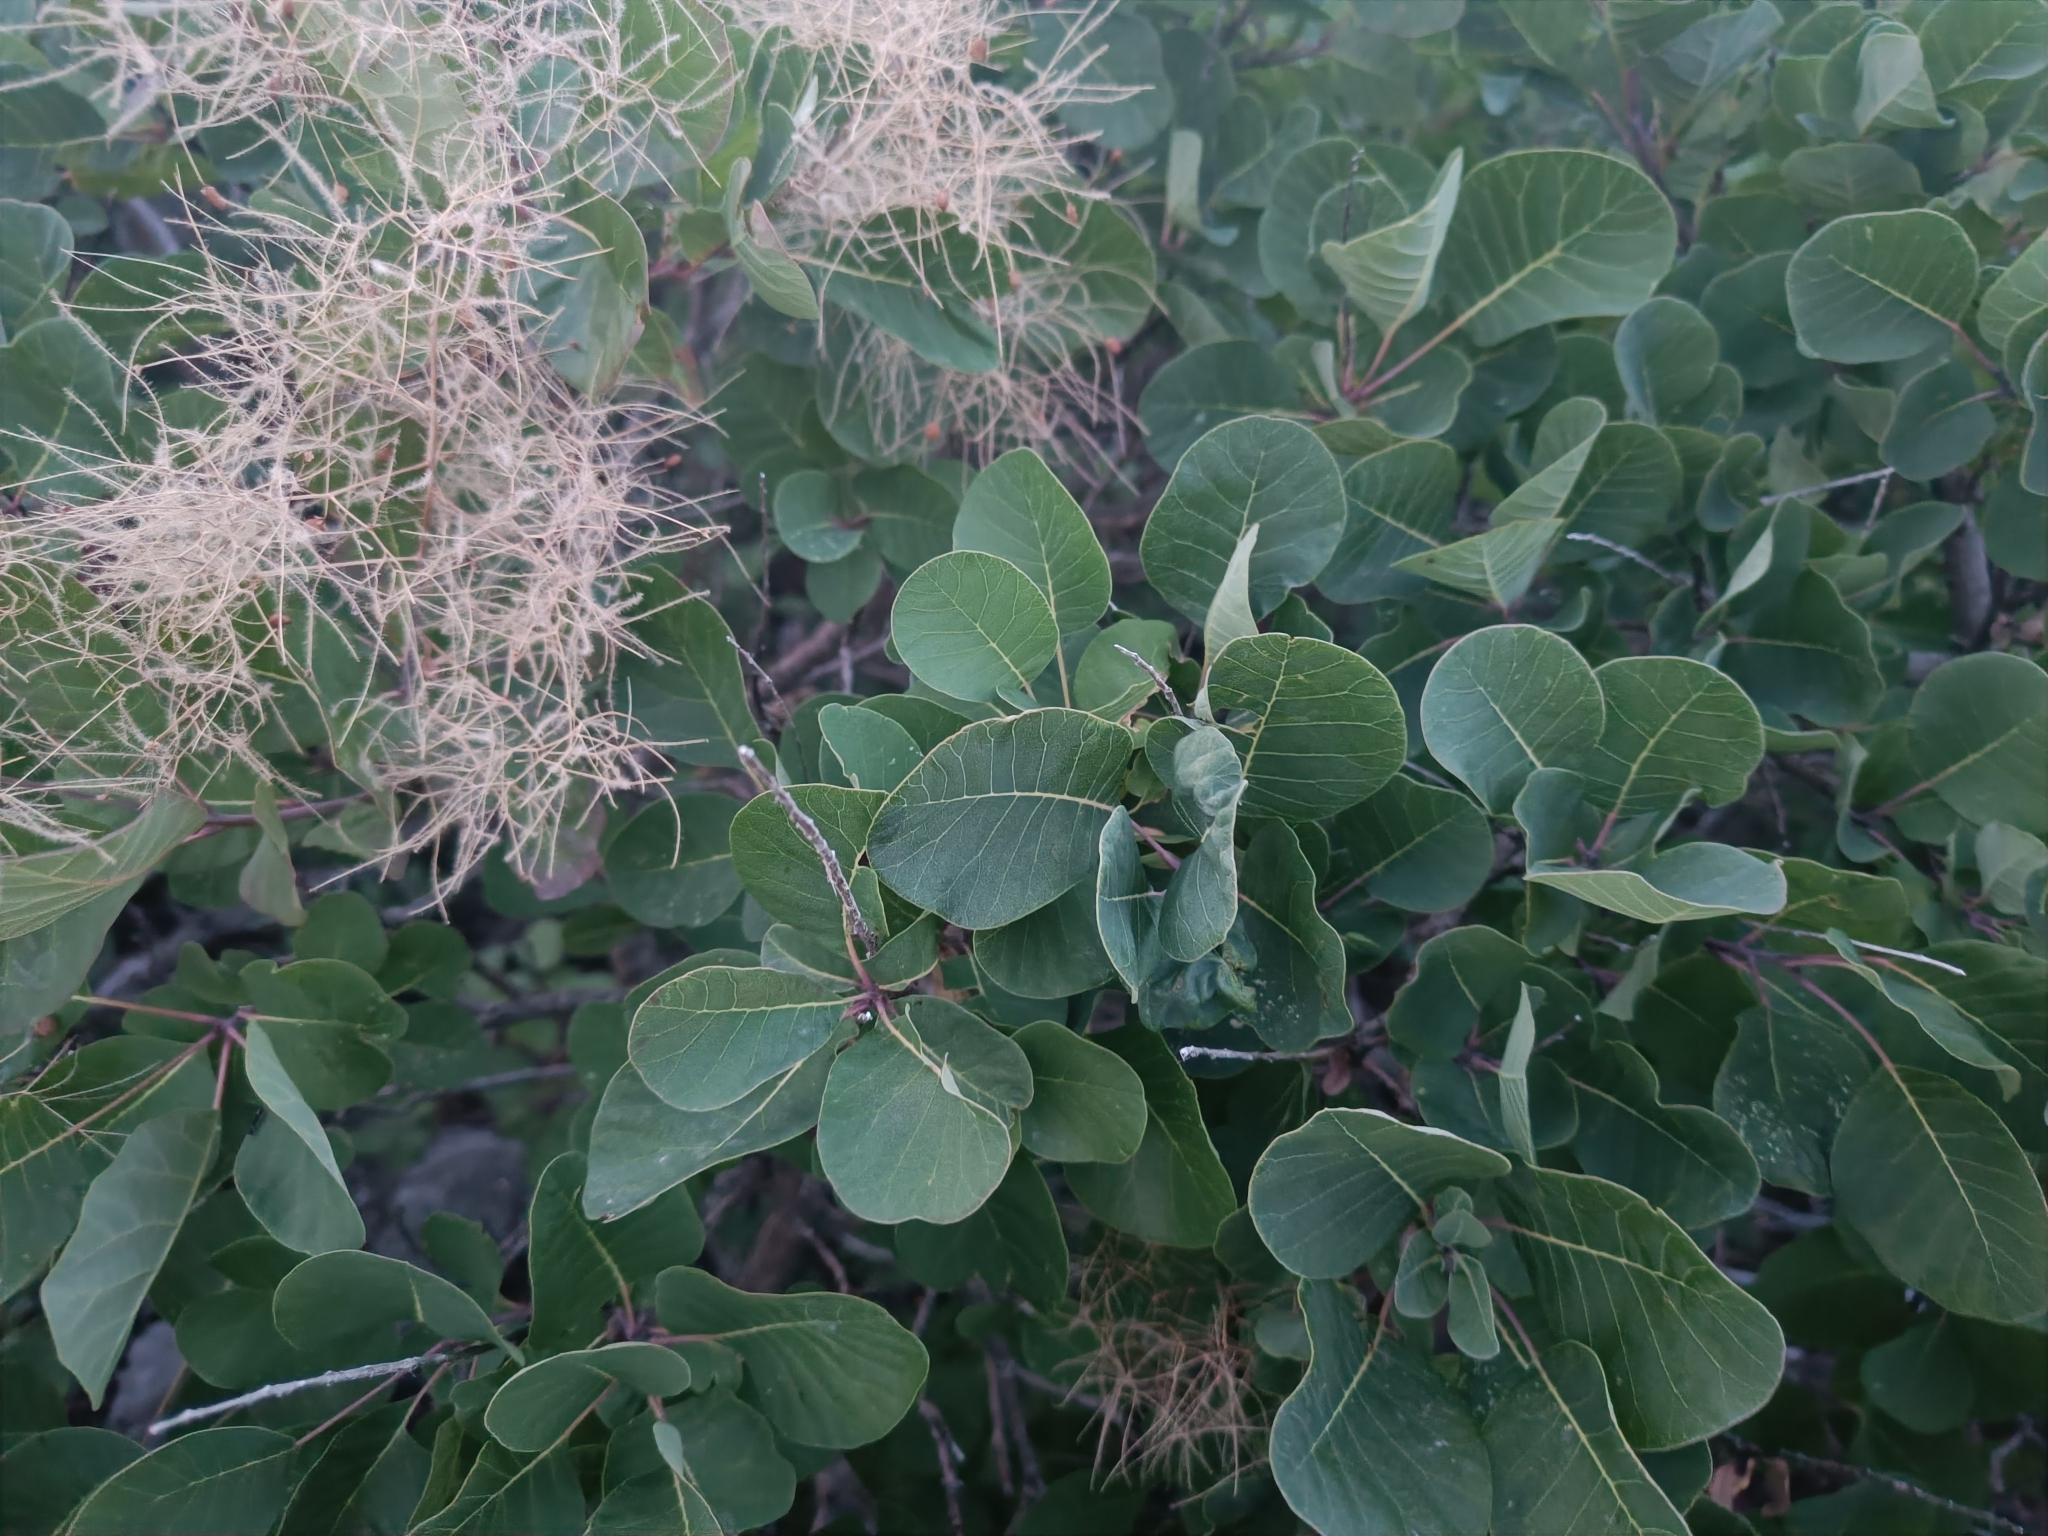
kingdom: Plantae
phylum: Tracheophyta
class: Magnoliopsida
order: Sapindales
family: Anacardiaceae
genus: Cotinus
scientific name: Cotinus coggygria
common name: Smoke-tree
